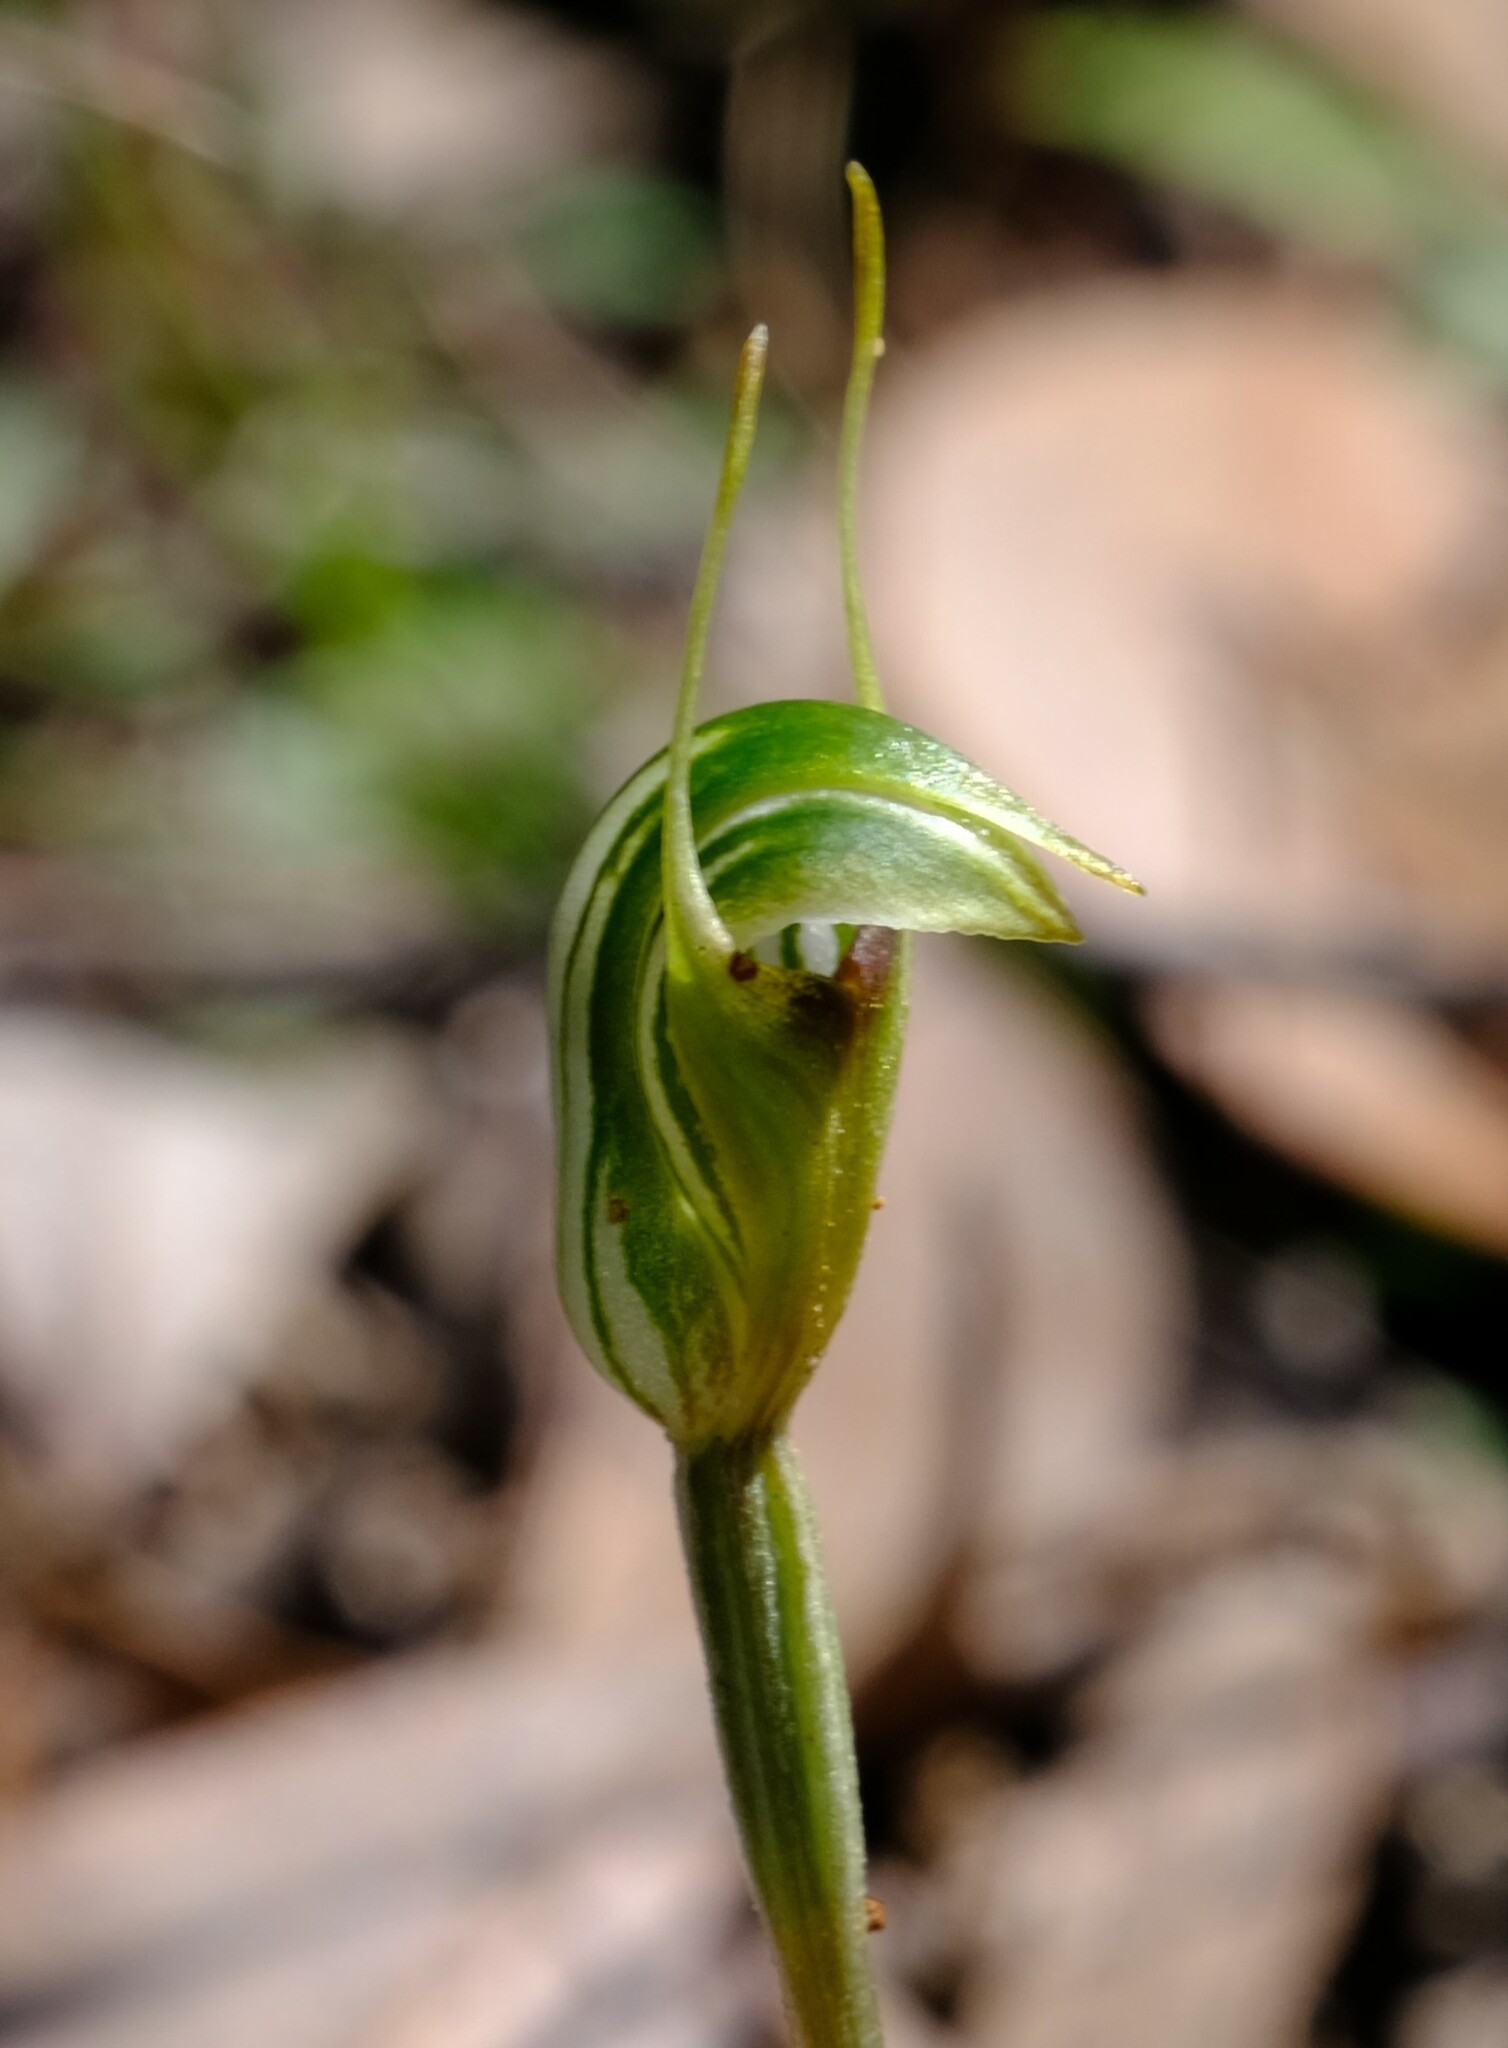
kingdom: Plantae
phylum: Tracheophyta
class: Liliopsida
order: Asparagales
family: Orchidaceae
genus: Pterostylis
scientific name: Pterostylis concinna
